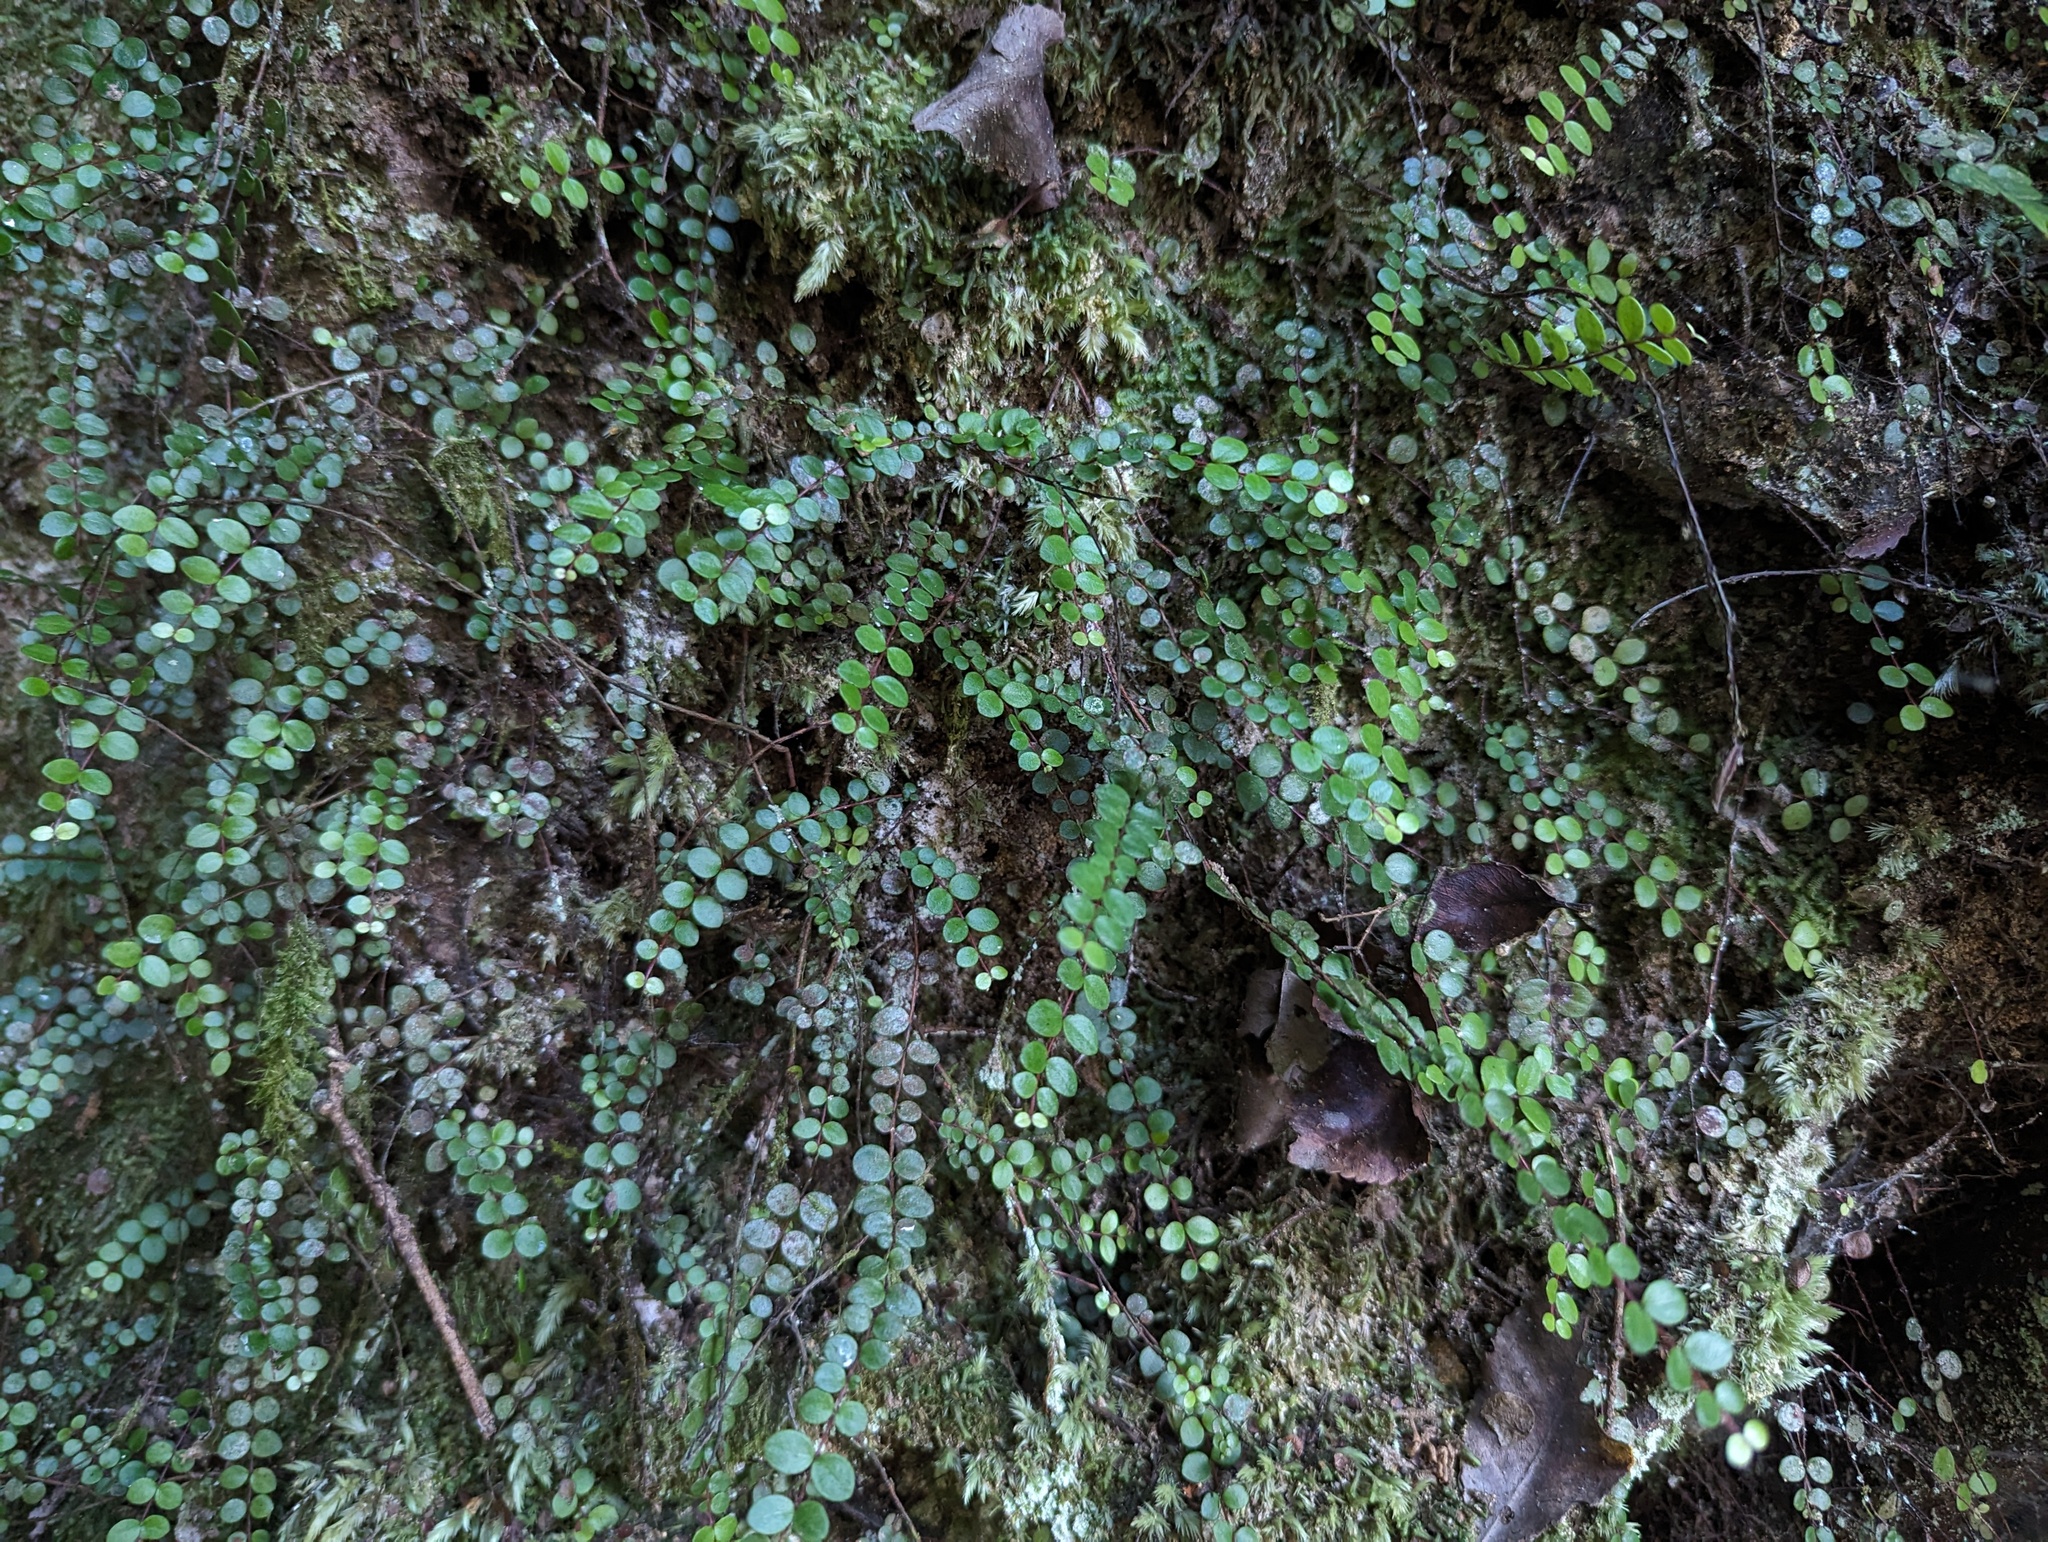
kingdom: Plantae
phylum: Tracheophyta
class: Magnoliopsida
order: Myrtales
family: Myrtaceae
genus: Metrosideros
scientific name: Metrosideros perforata
